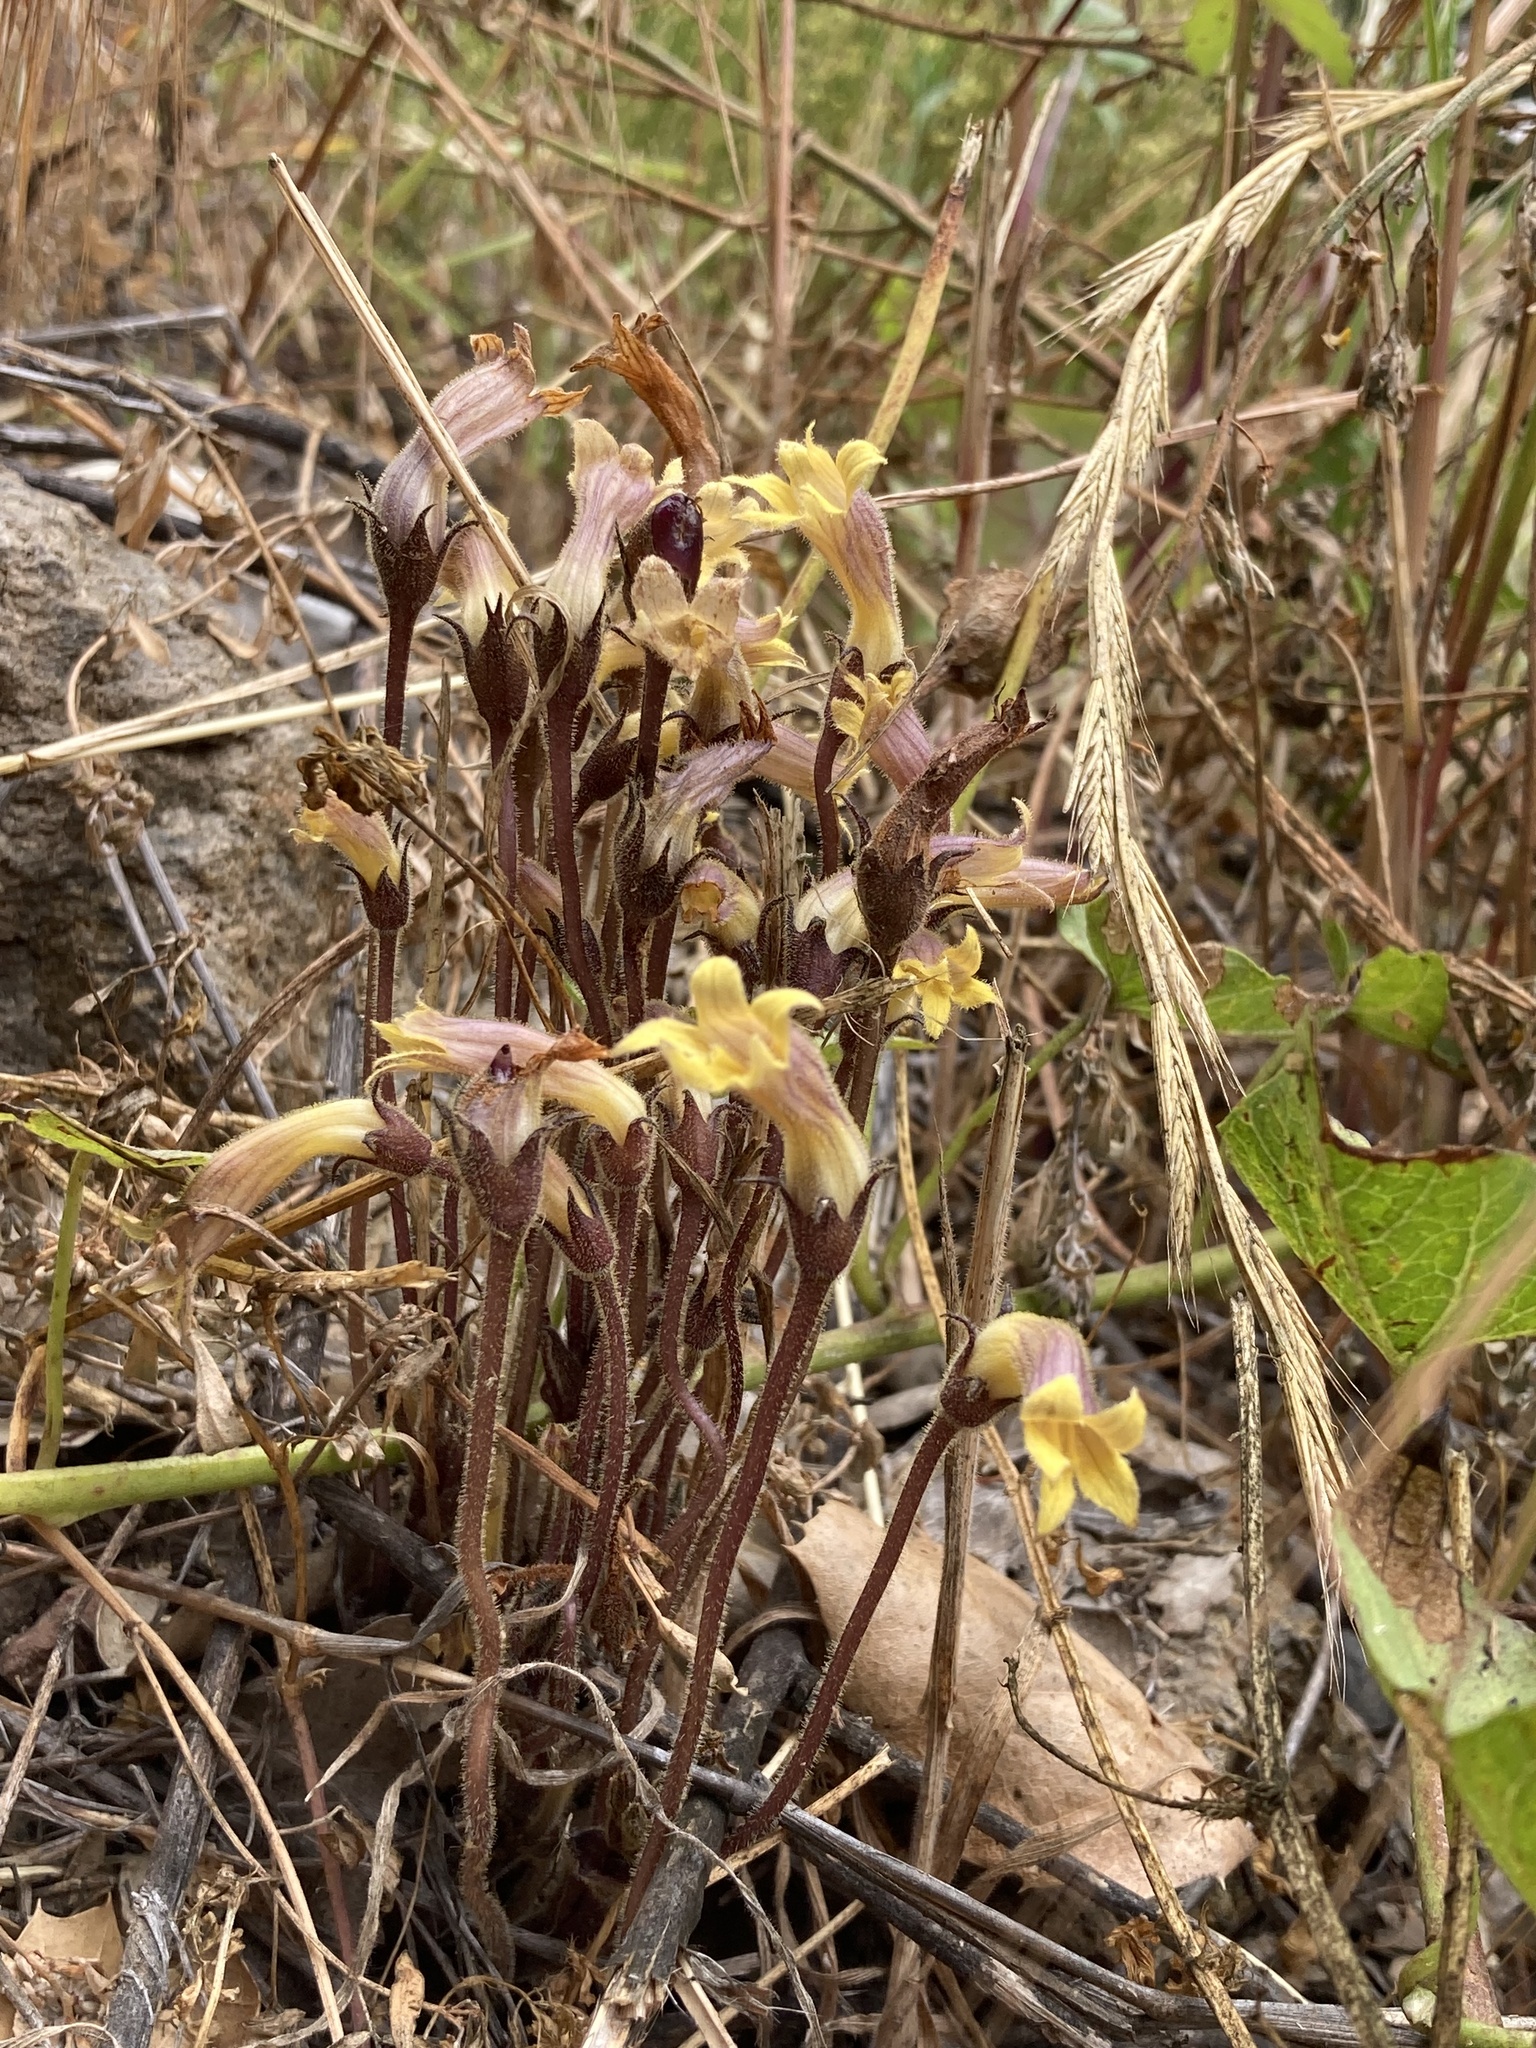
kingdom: Plantae
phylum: Tracheophyta
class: Magnoliopsida
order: Lamiales
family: Orobanchaceae
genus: Aphyllon
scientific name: Aphyllon franciscanum
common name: San francisco broomrape
